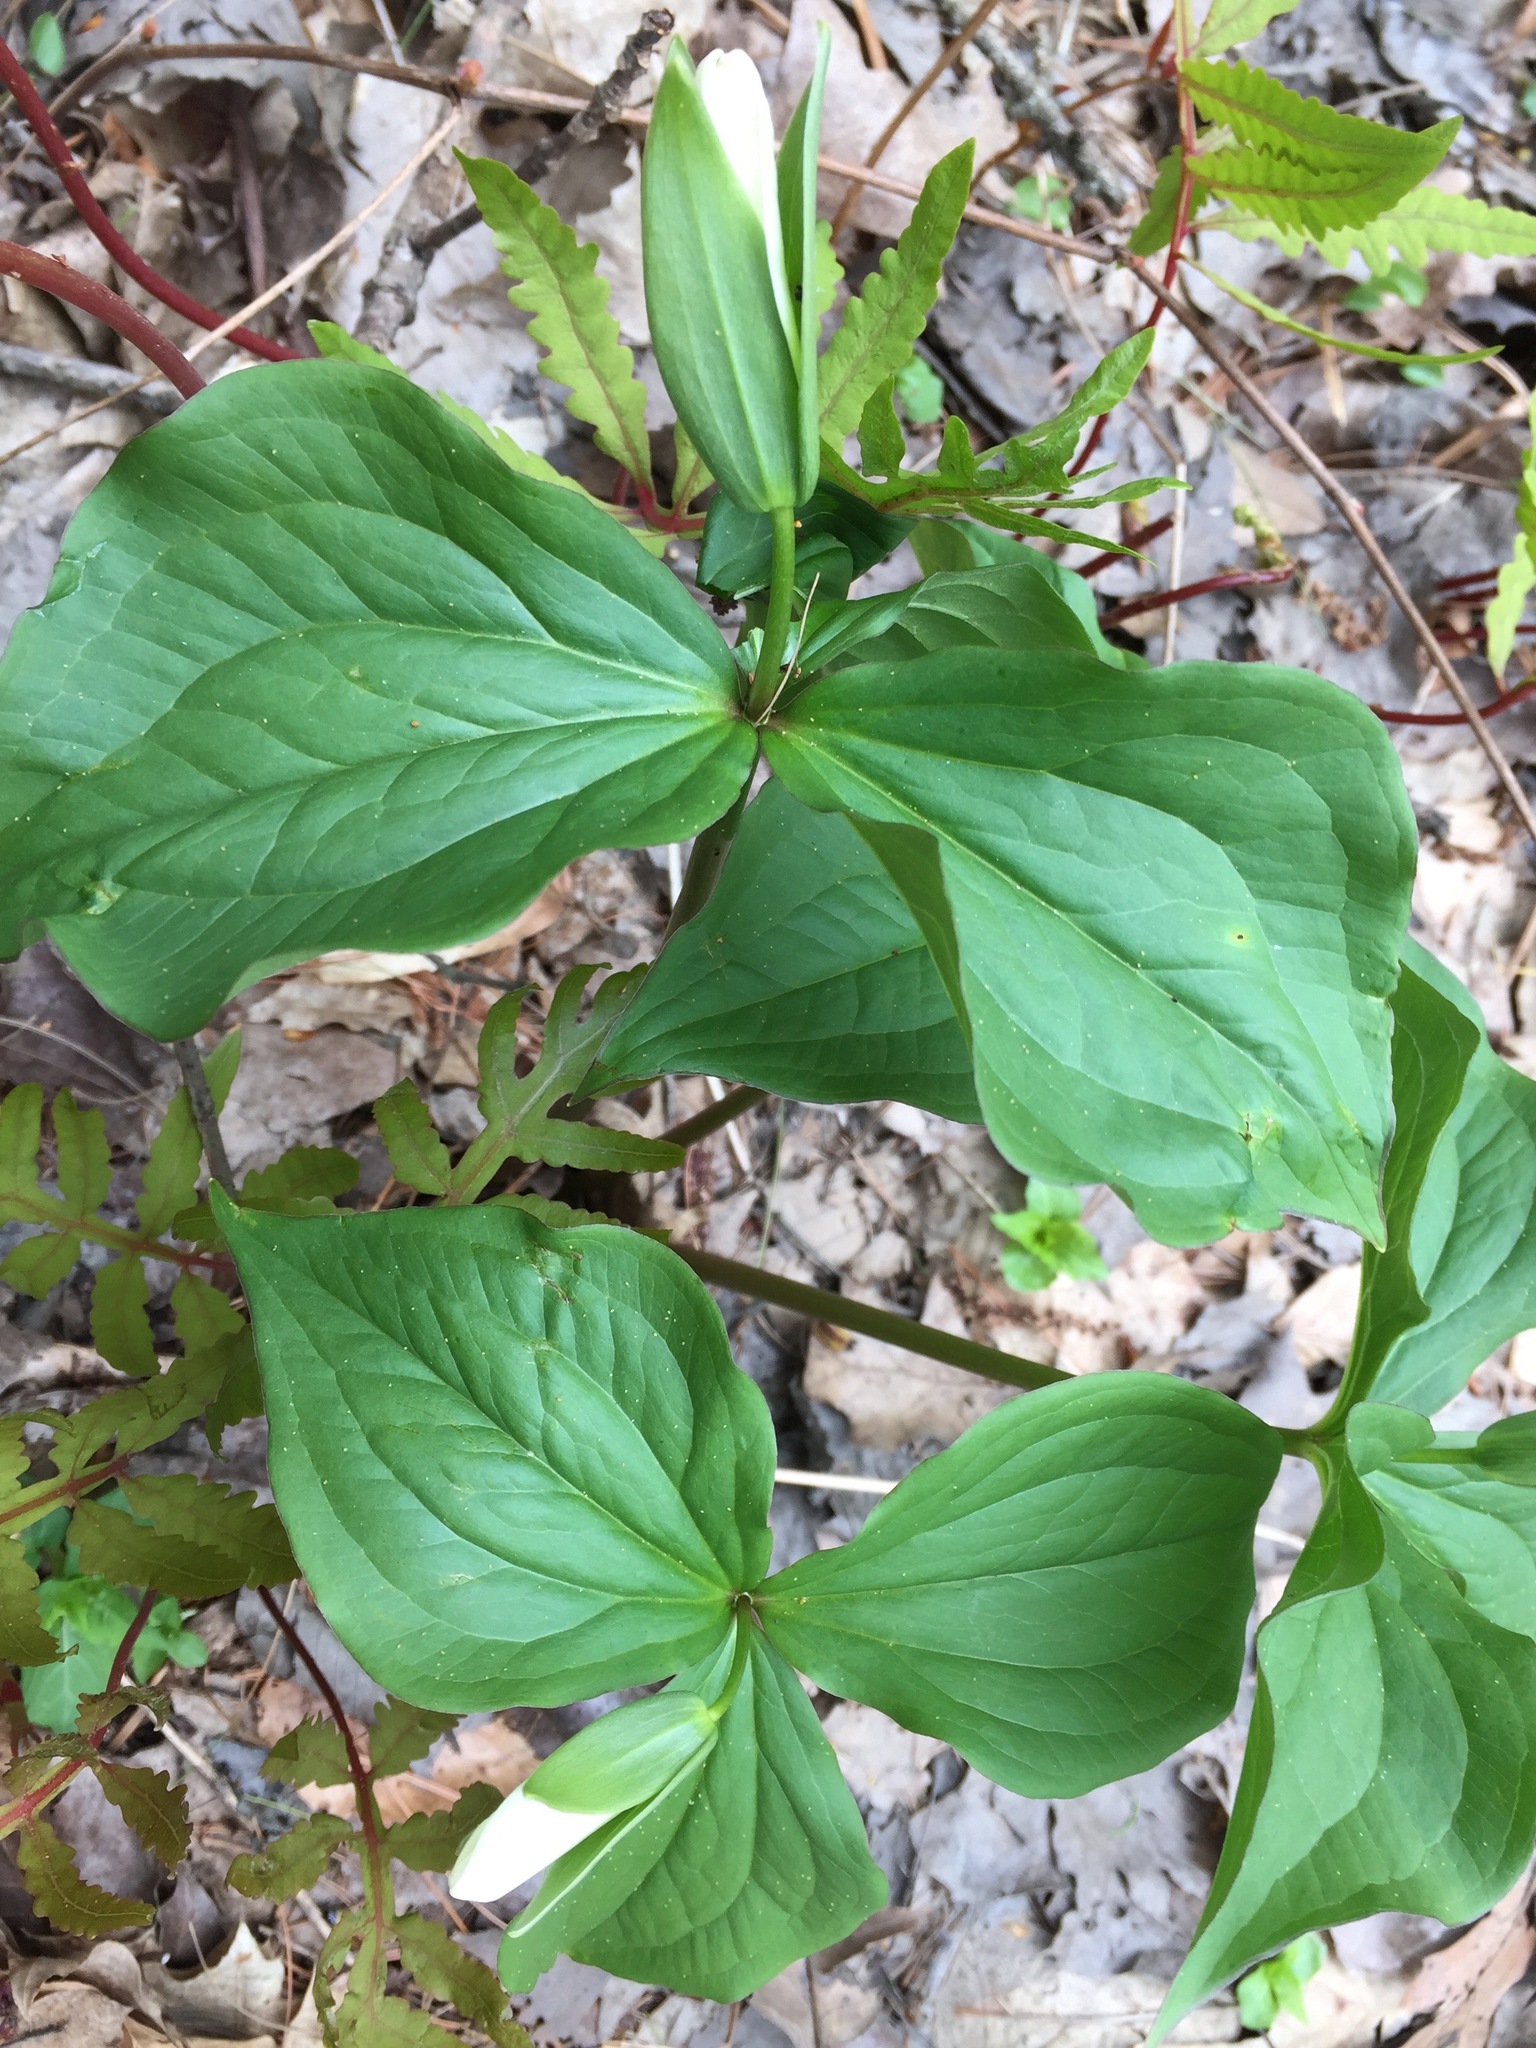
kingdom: Plantae
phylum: Tracheophyta
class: Liliopsida
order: Liliales
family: Melanthiaceae
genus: Trillium
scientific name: Trillium grandiflorum
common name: Great white trillium
